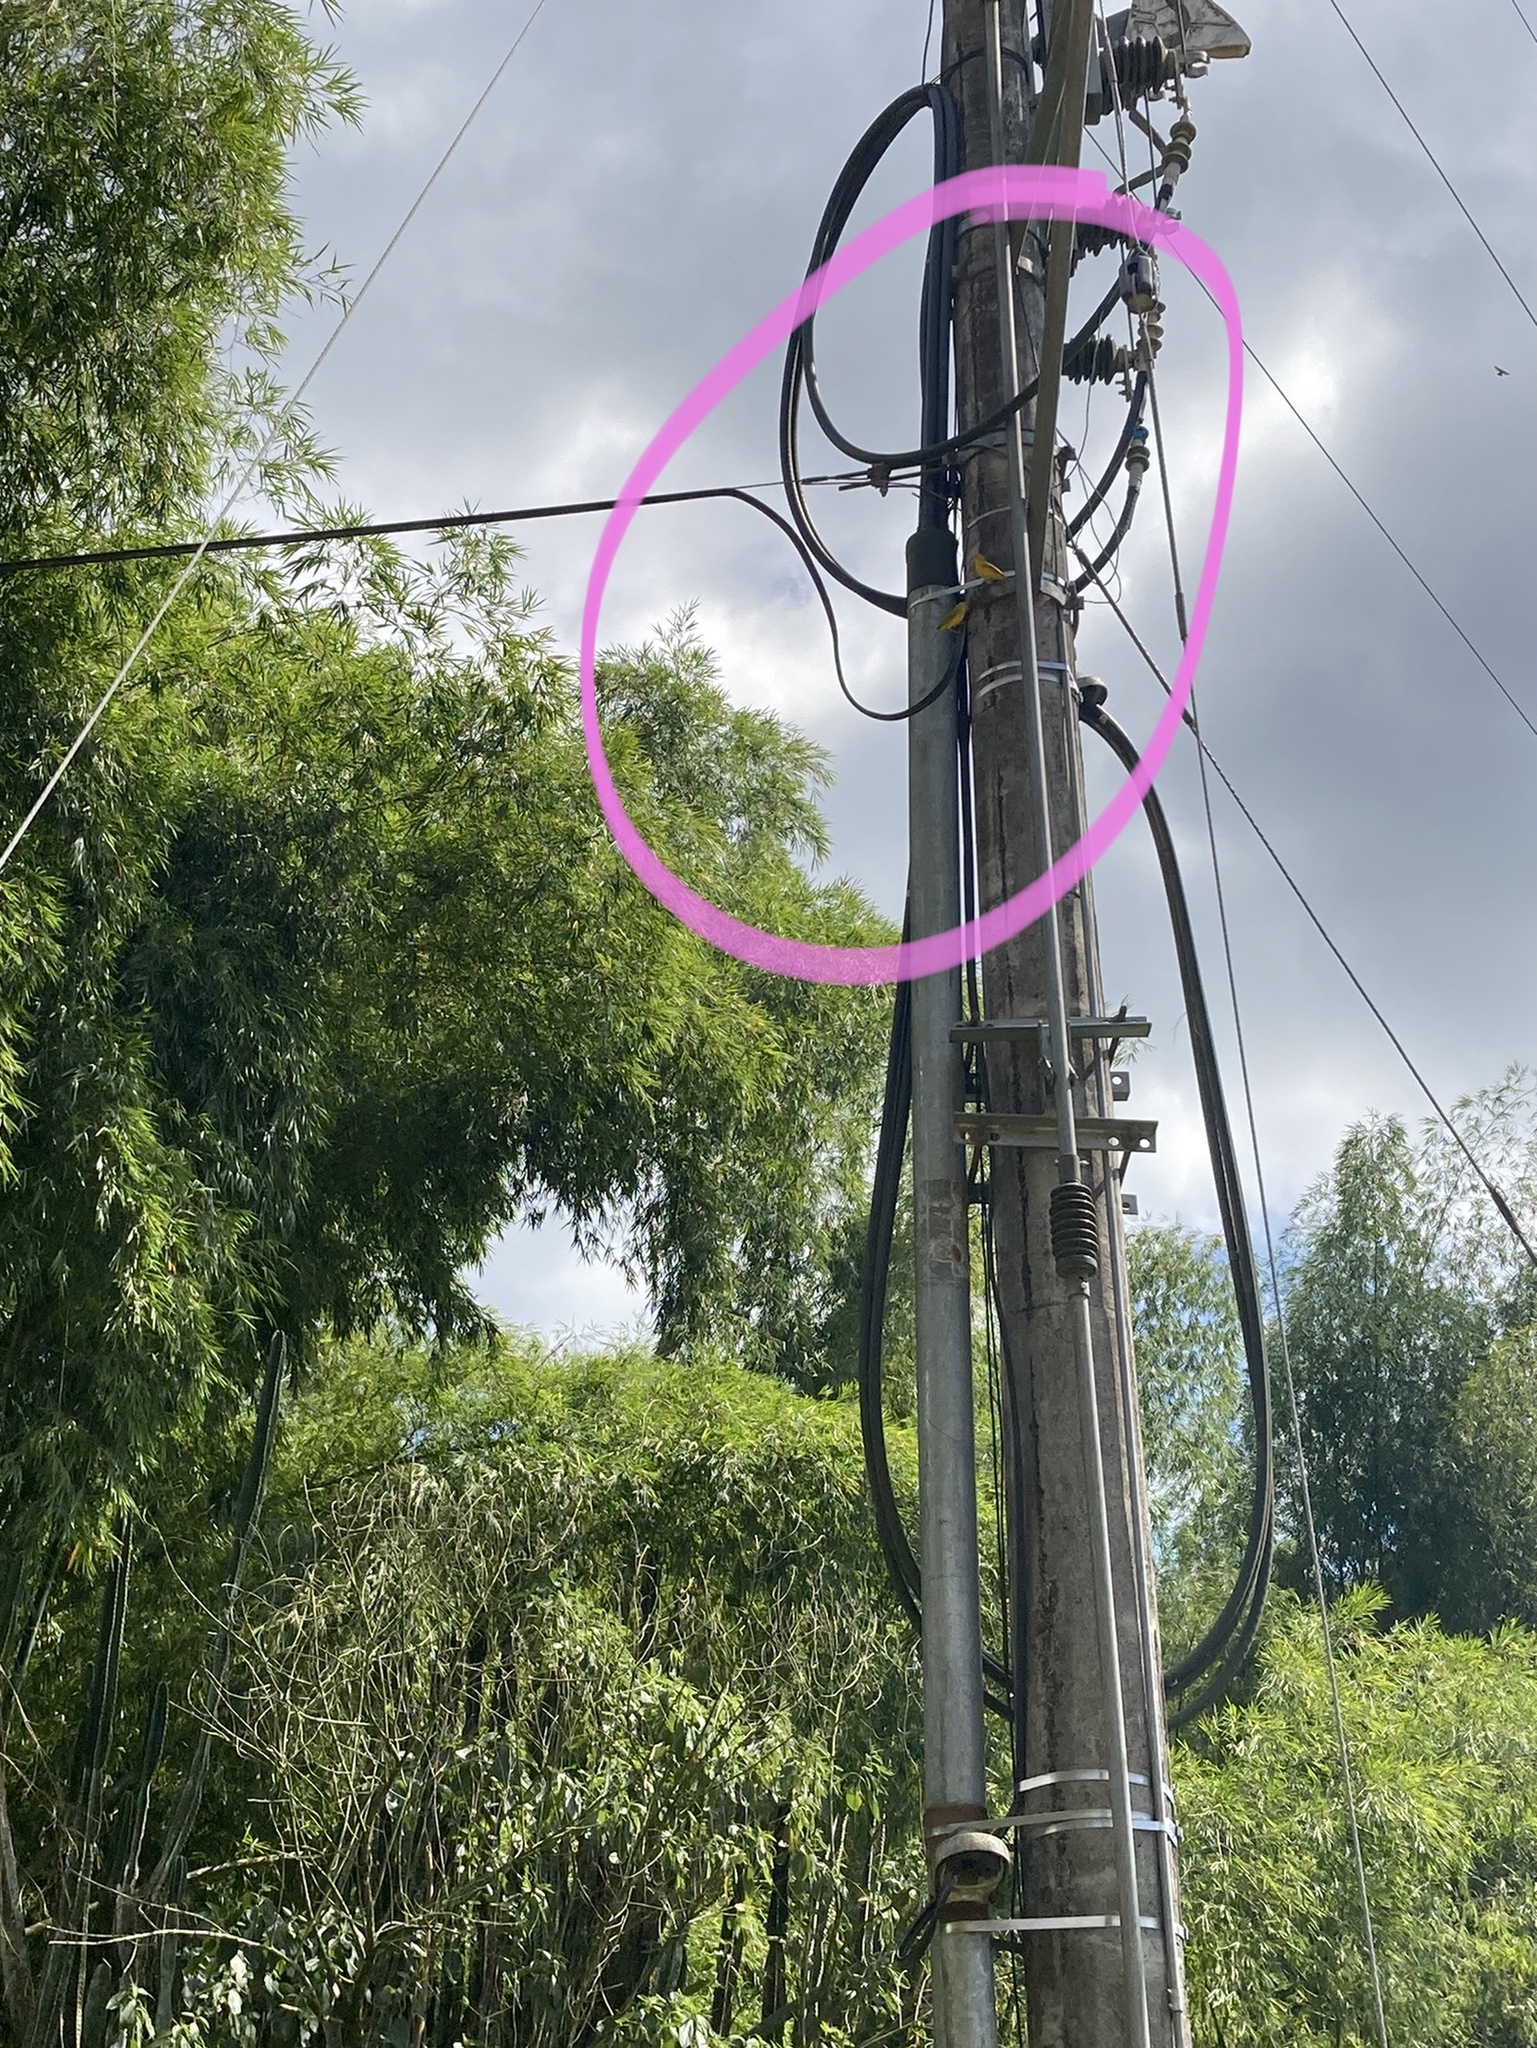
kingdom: Animalia
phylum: Chordata
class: Aves
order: Passeriformes
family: Thraupidae
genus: Sicalis
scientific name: Sicalis flaveola
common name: Saffron finch
